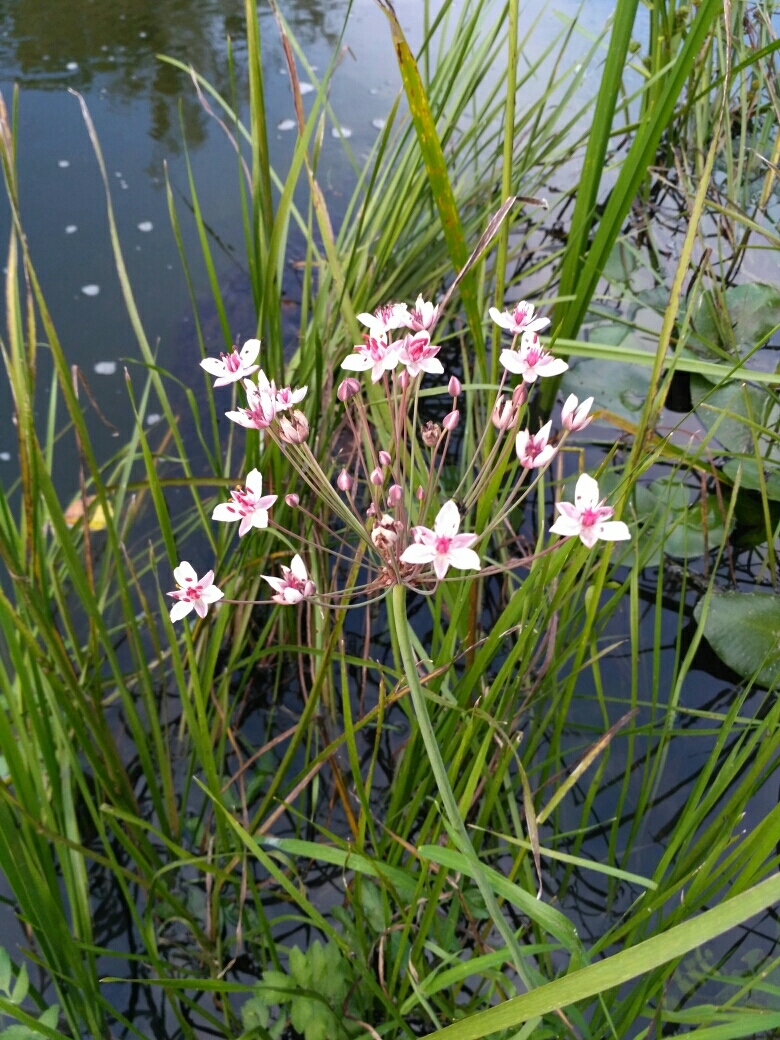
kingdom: Plantae
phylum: Tracheophyta
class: Liliopsida
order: Alismatales
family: Butomaceae
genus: Butomus
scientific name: Butomus umbellatus
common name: Flowering-rush
